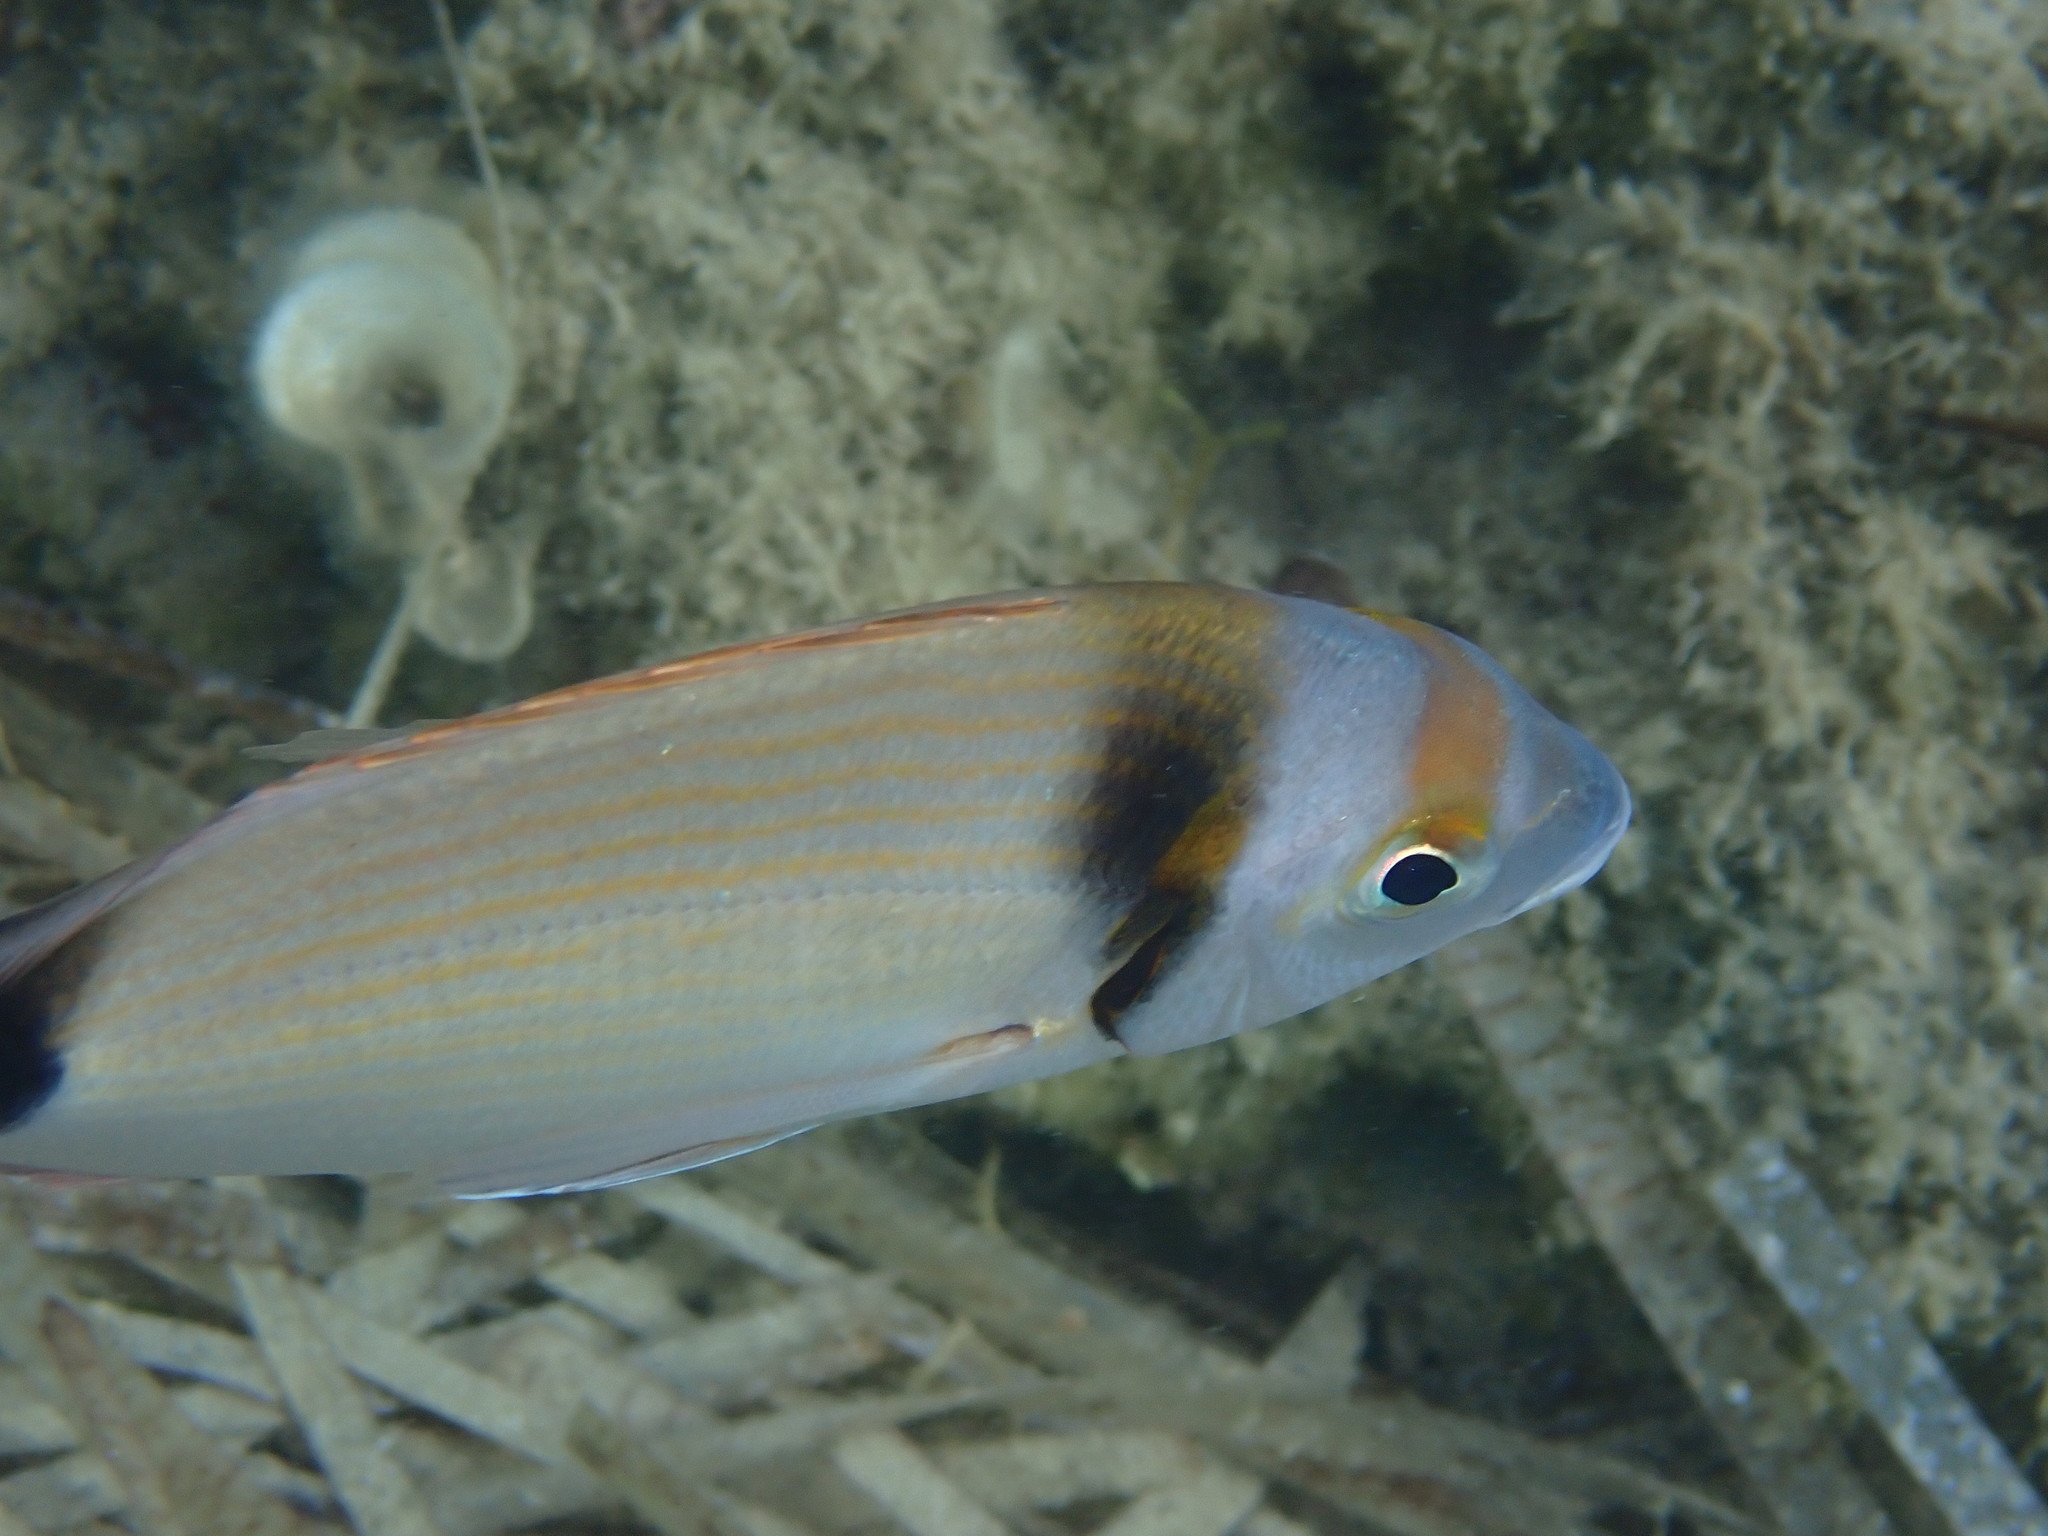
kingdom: Animalia
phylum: Chordata
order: Perciformes
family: Sparidae
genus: Diplodus
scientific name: Diplodus vulgaris
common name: Common two-banded seabream
